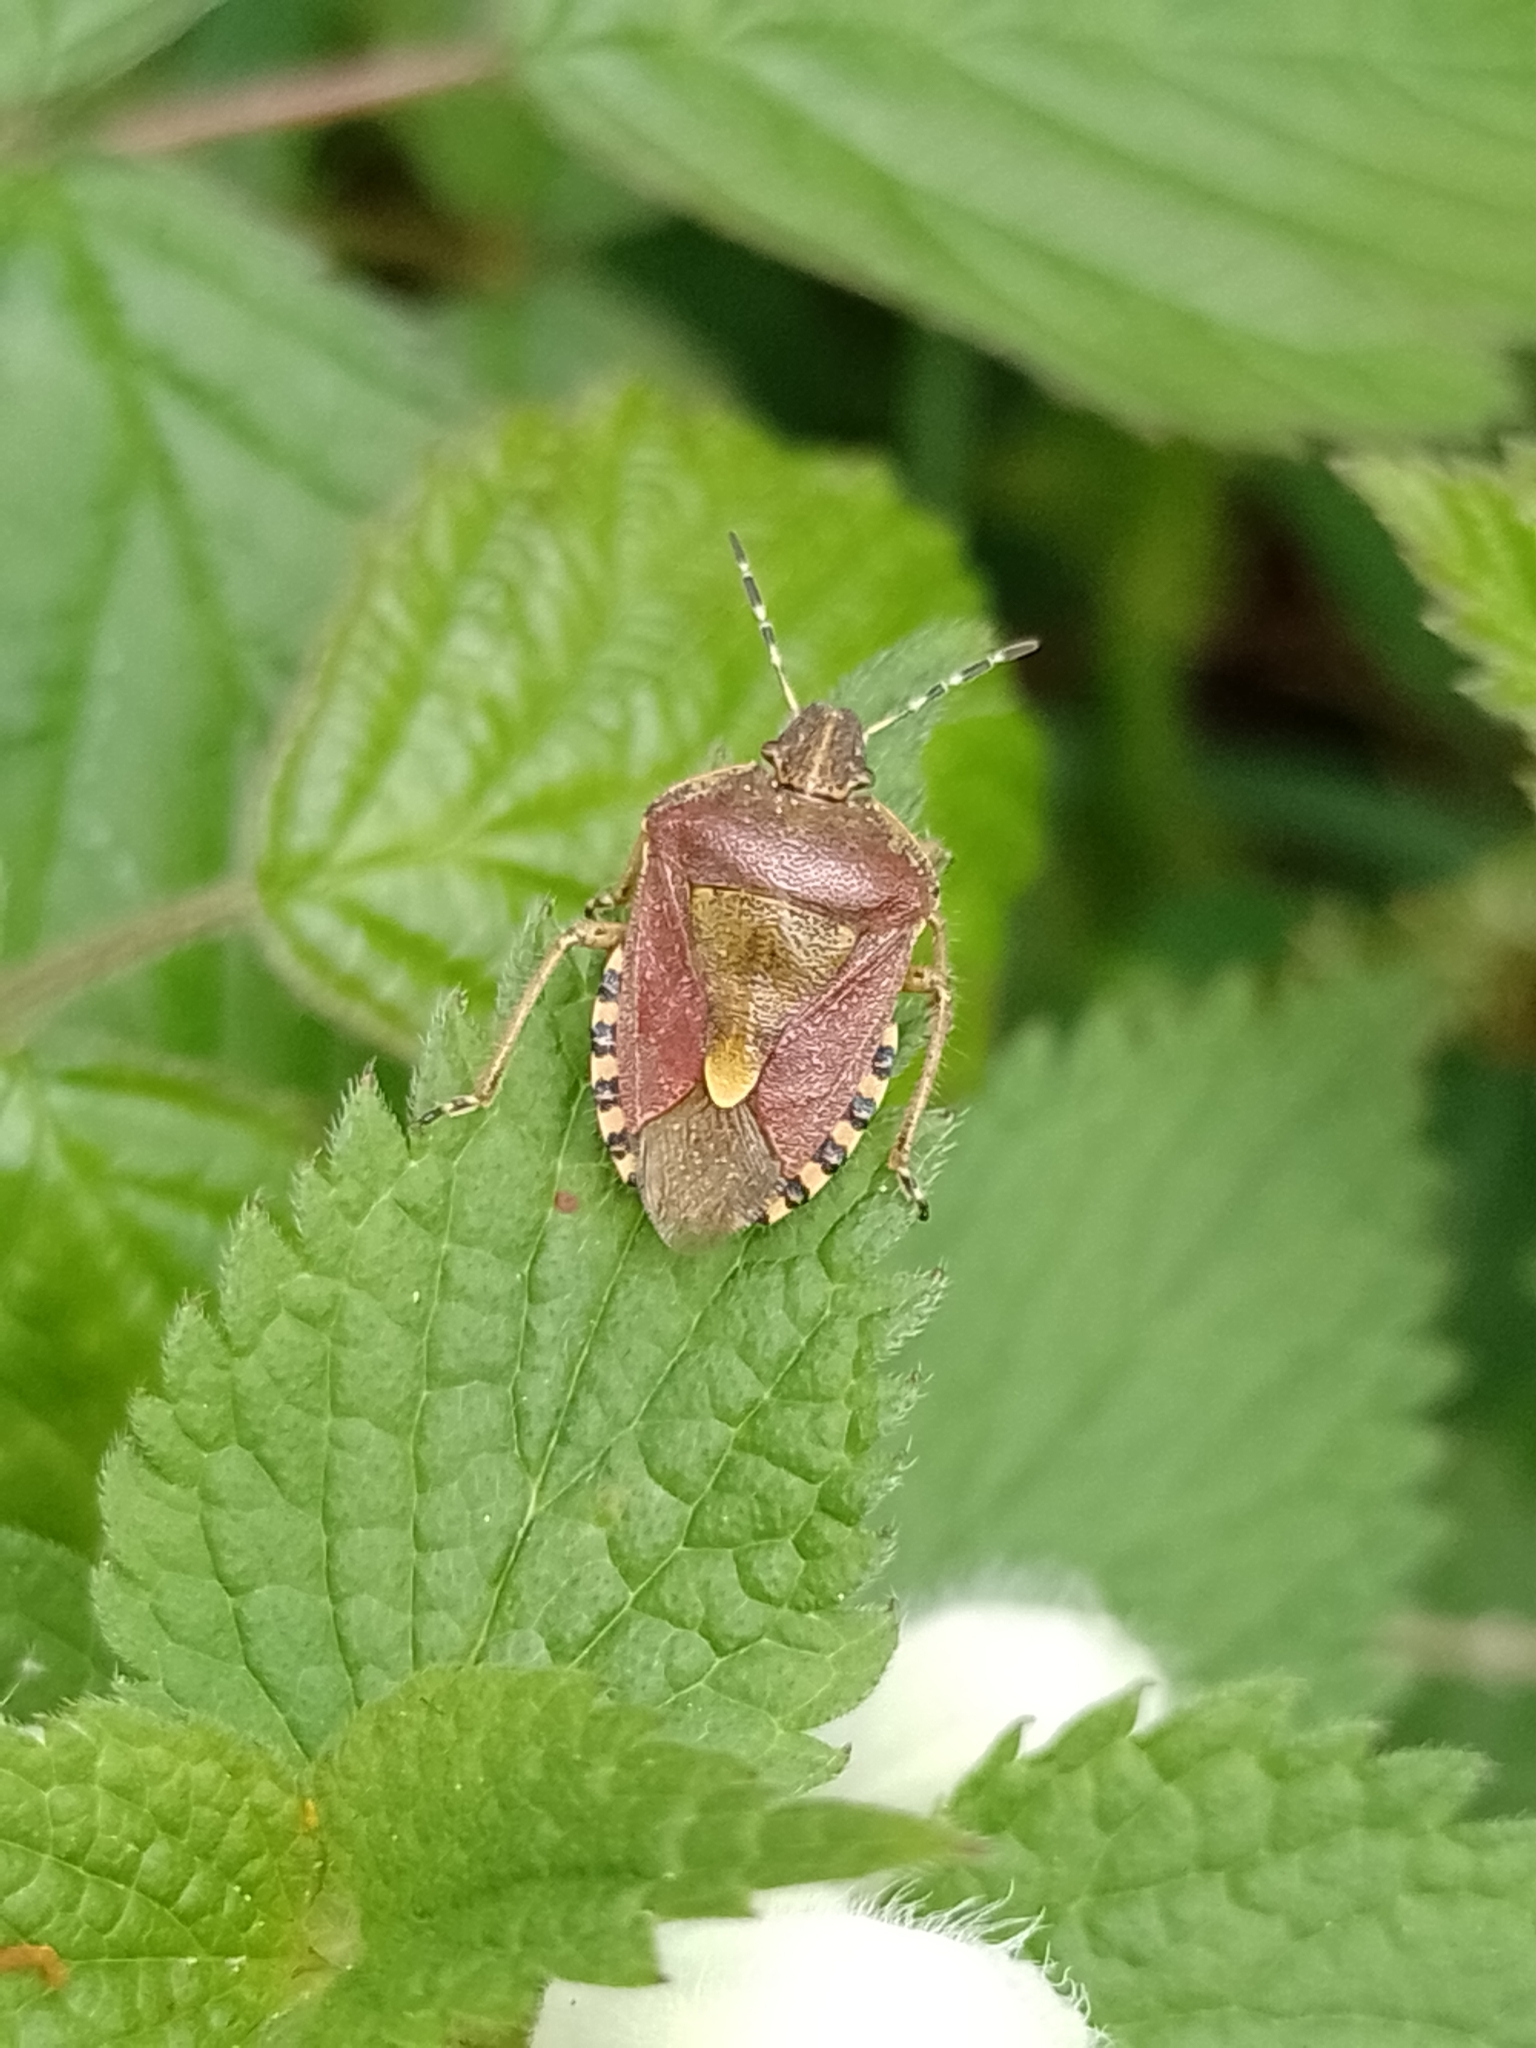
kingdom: Animalia
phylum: Arthropoda
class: Insecta
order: Hemiptera
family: Pentatomidae
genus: Dolycoris
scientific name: Dolycoris baccarum
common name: Sloe bug
